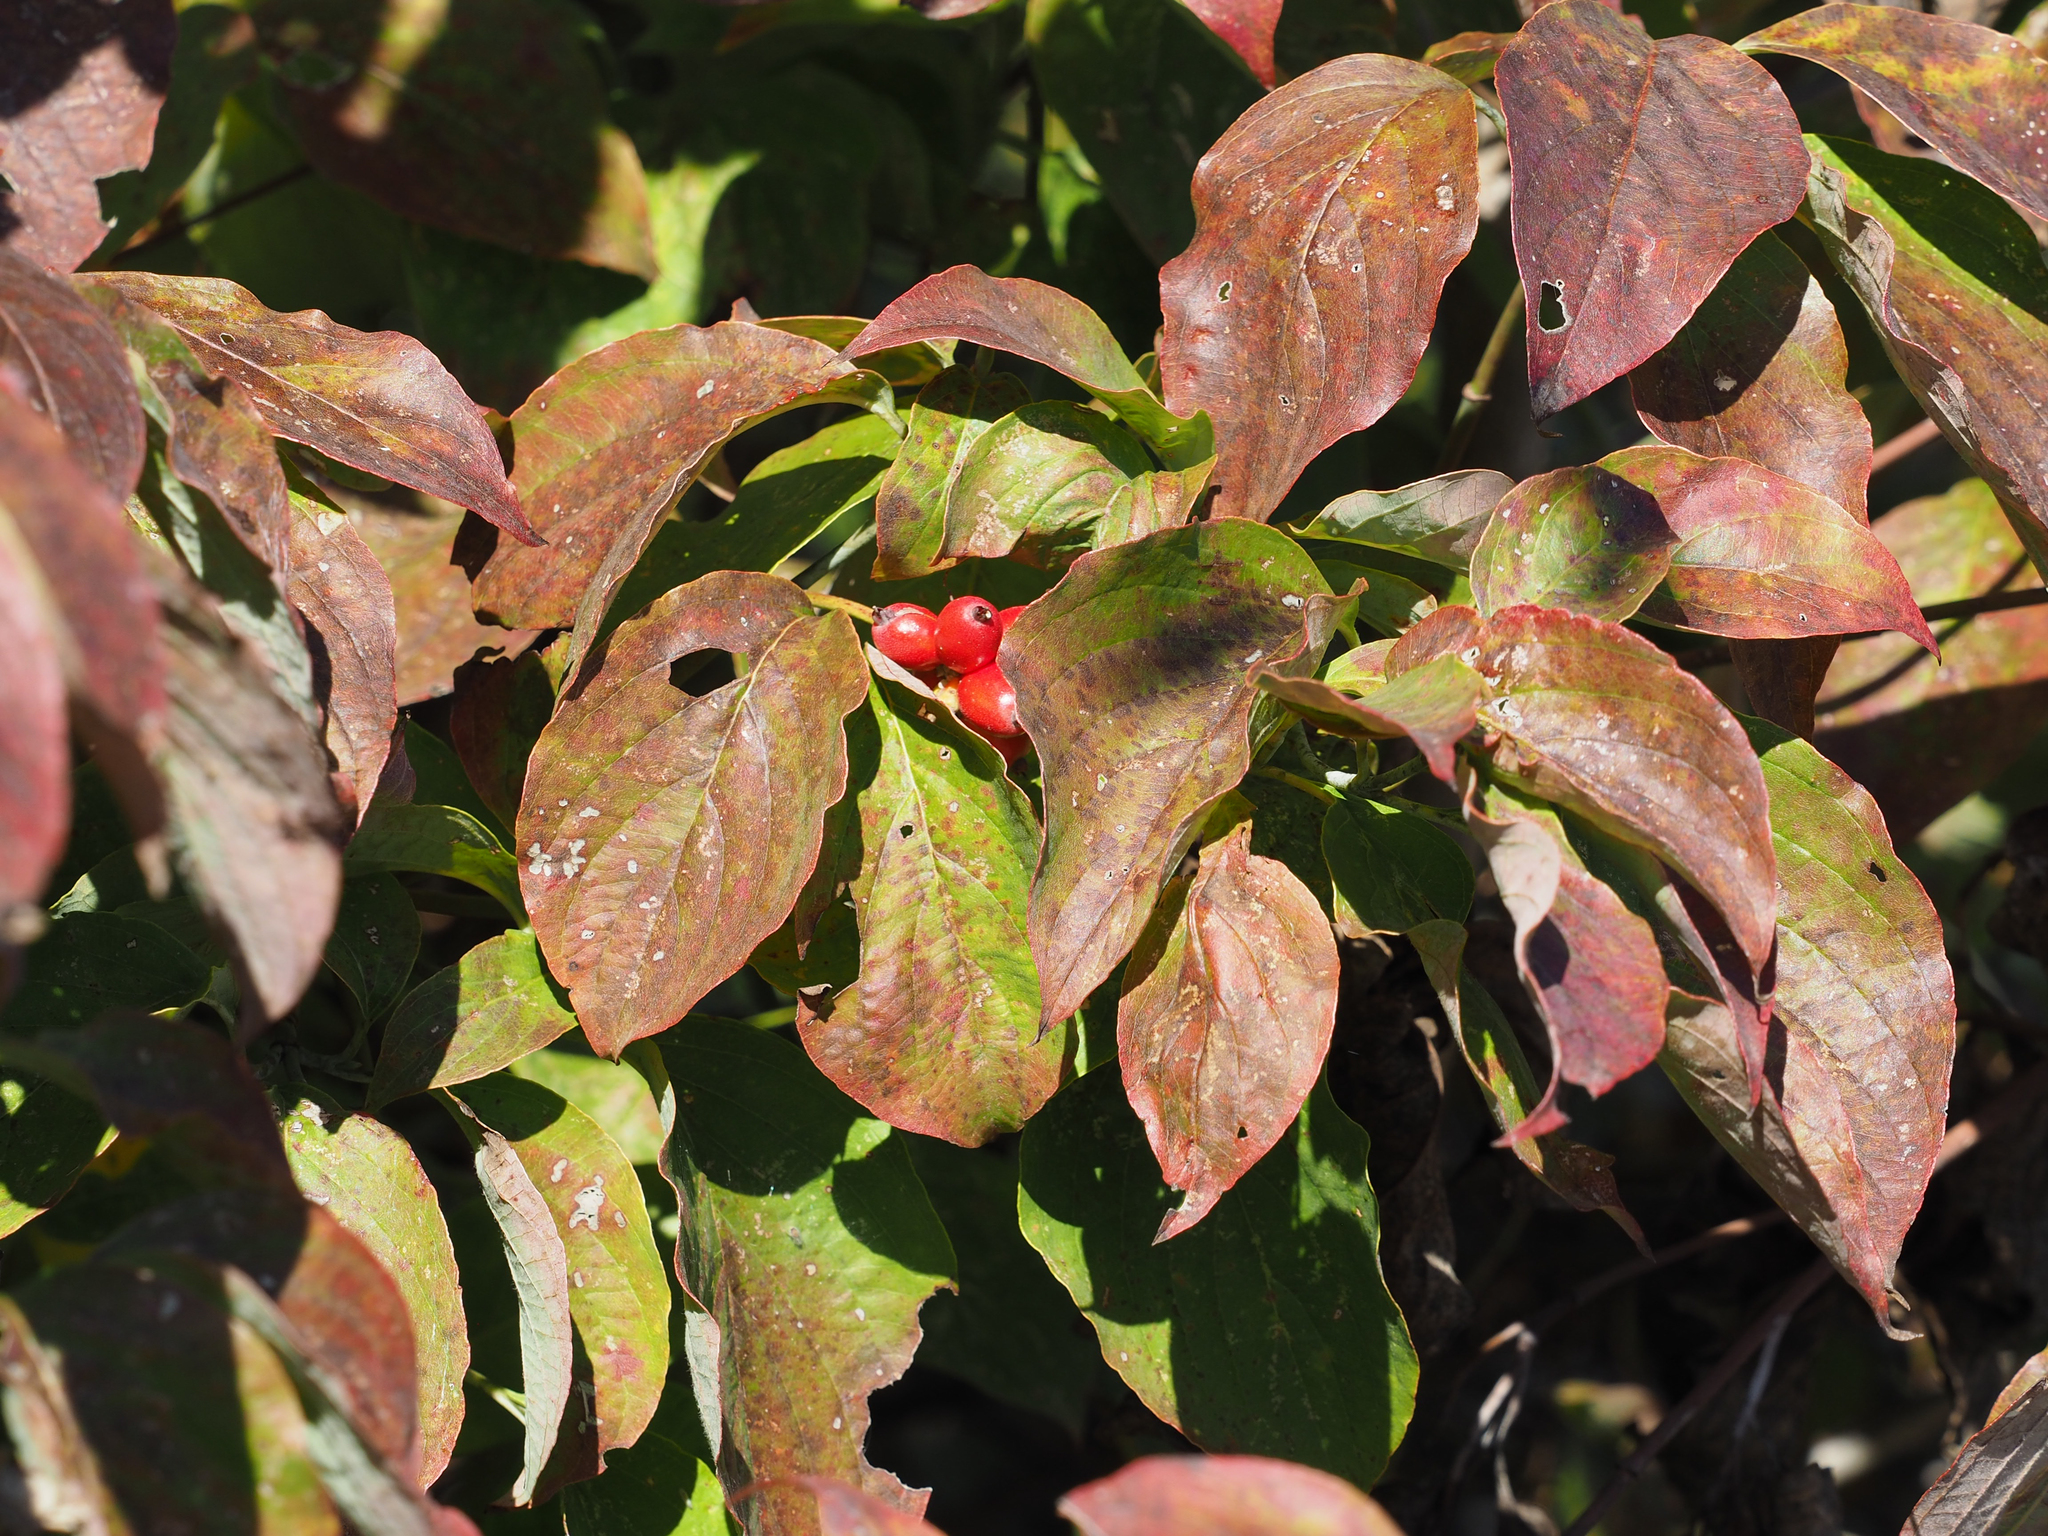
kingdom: Plantae
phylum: Tracheophyta
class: Magnoliopsida
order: Cornales
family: Cornaceae
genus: Cornus
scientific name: Cornus florida
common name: Flowering dogwood
